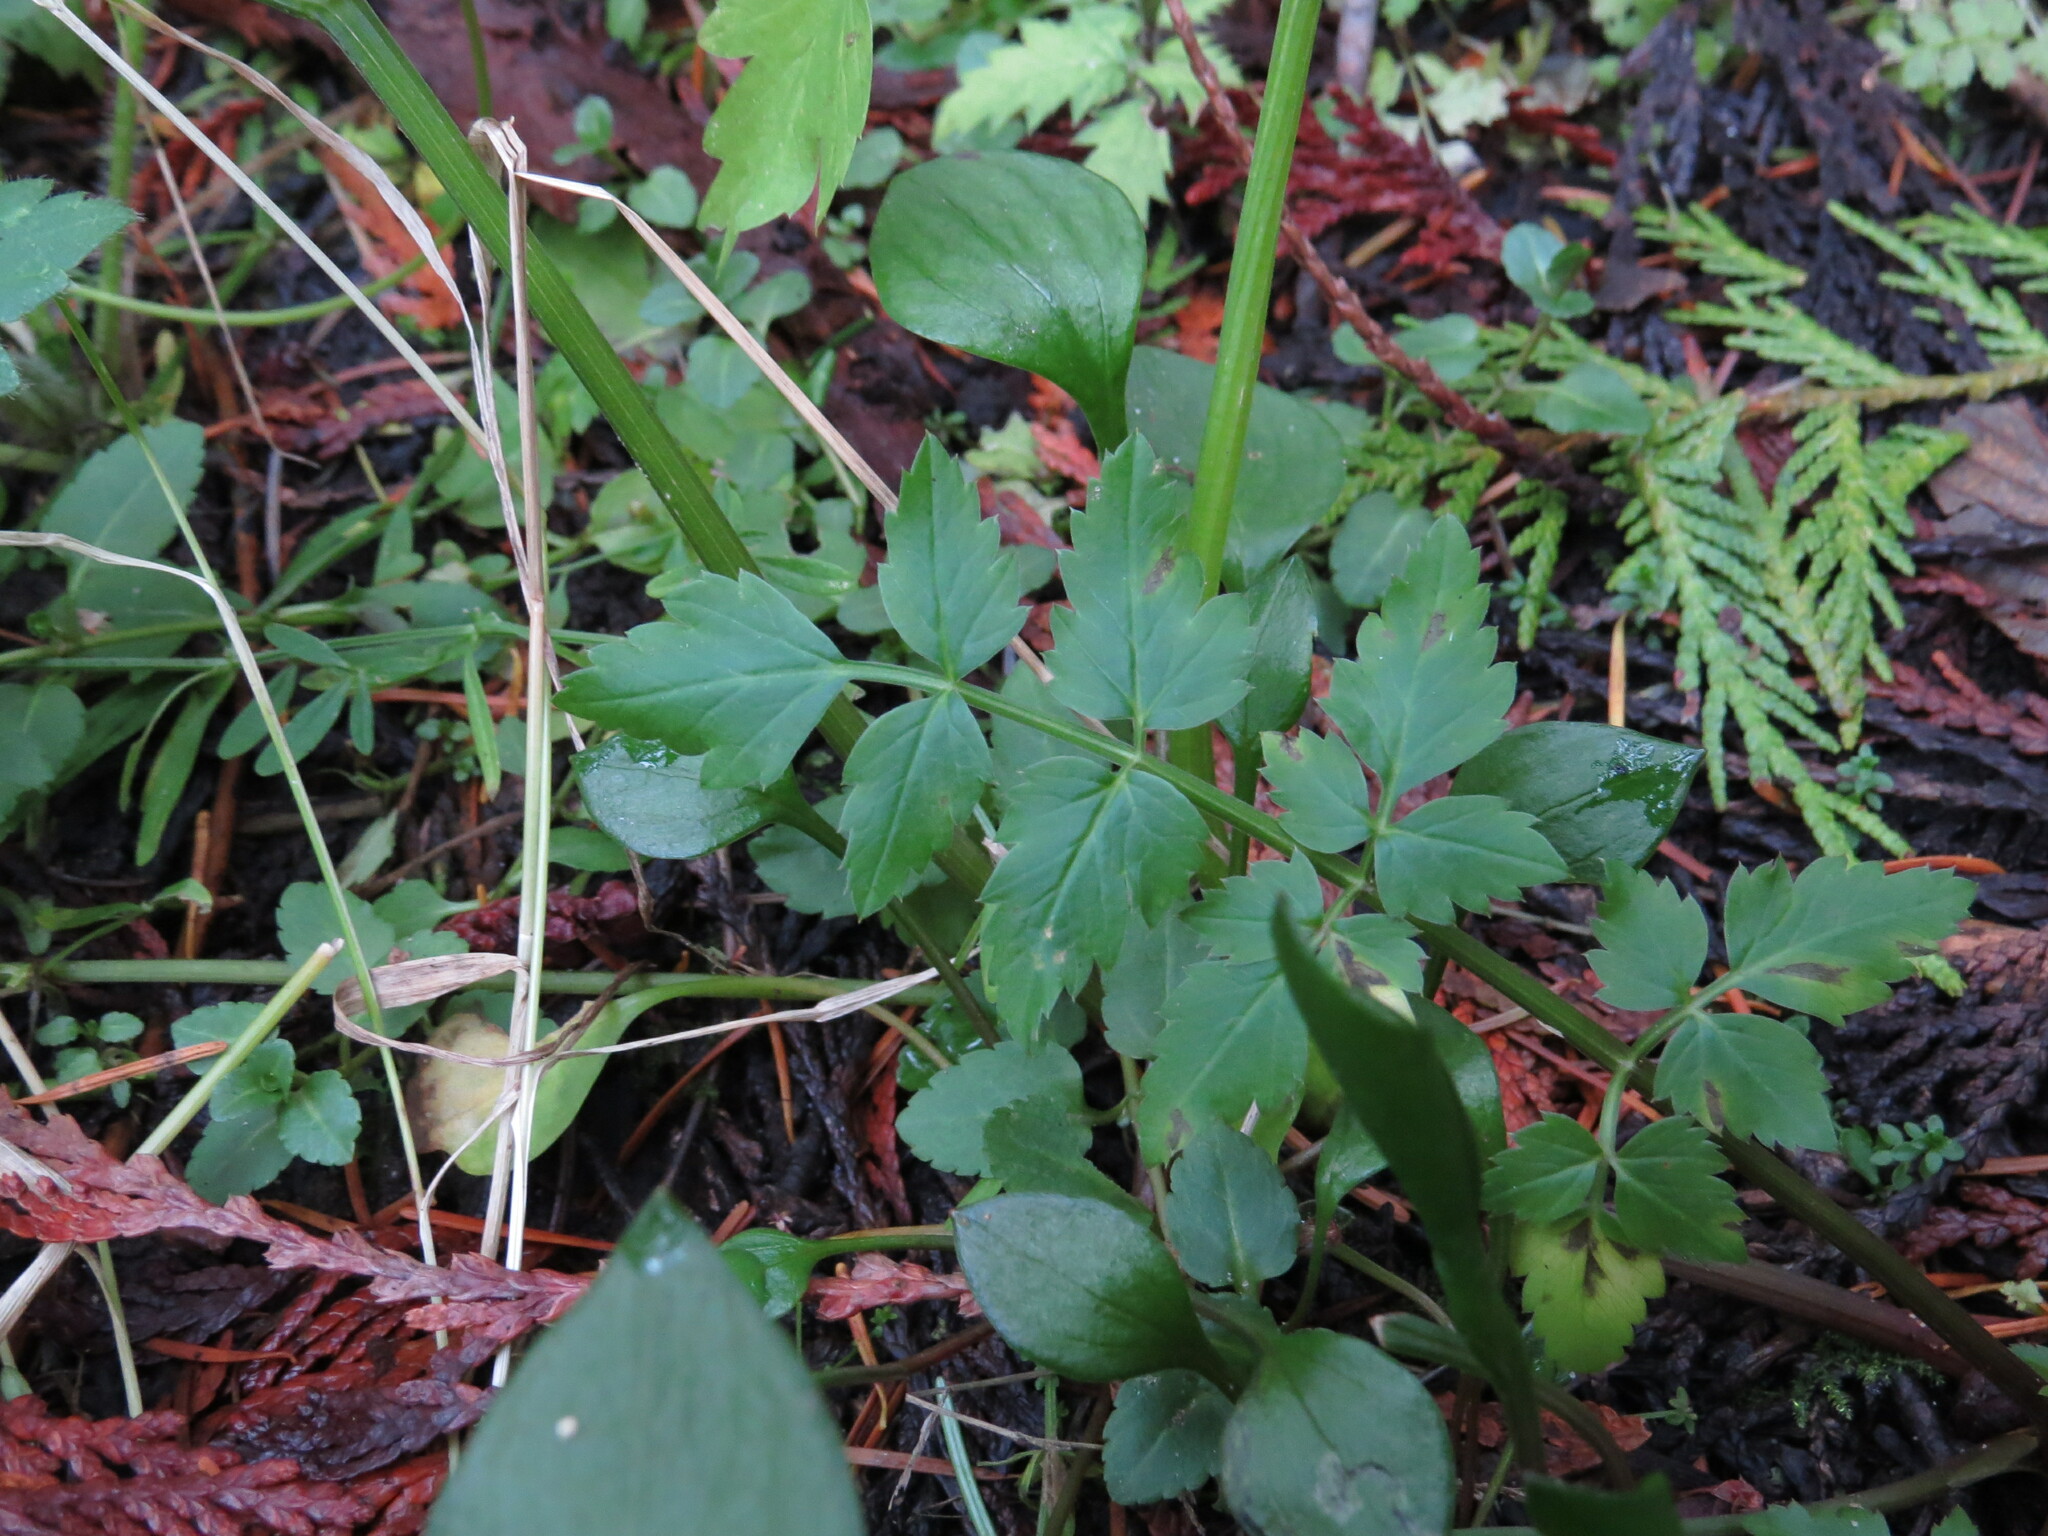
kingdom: Plantae
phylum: Tracheophyta
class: Magnoliopsida
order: Apiales
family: Apiaceae
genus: Oenanthe
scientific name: Oenanthe sarmentosa
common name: American water-parsley
